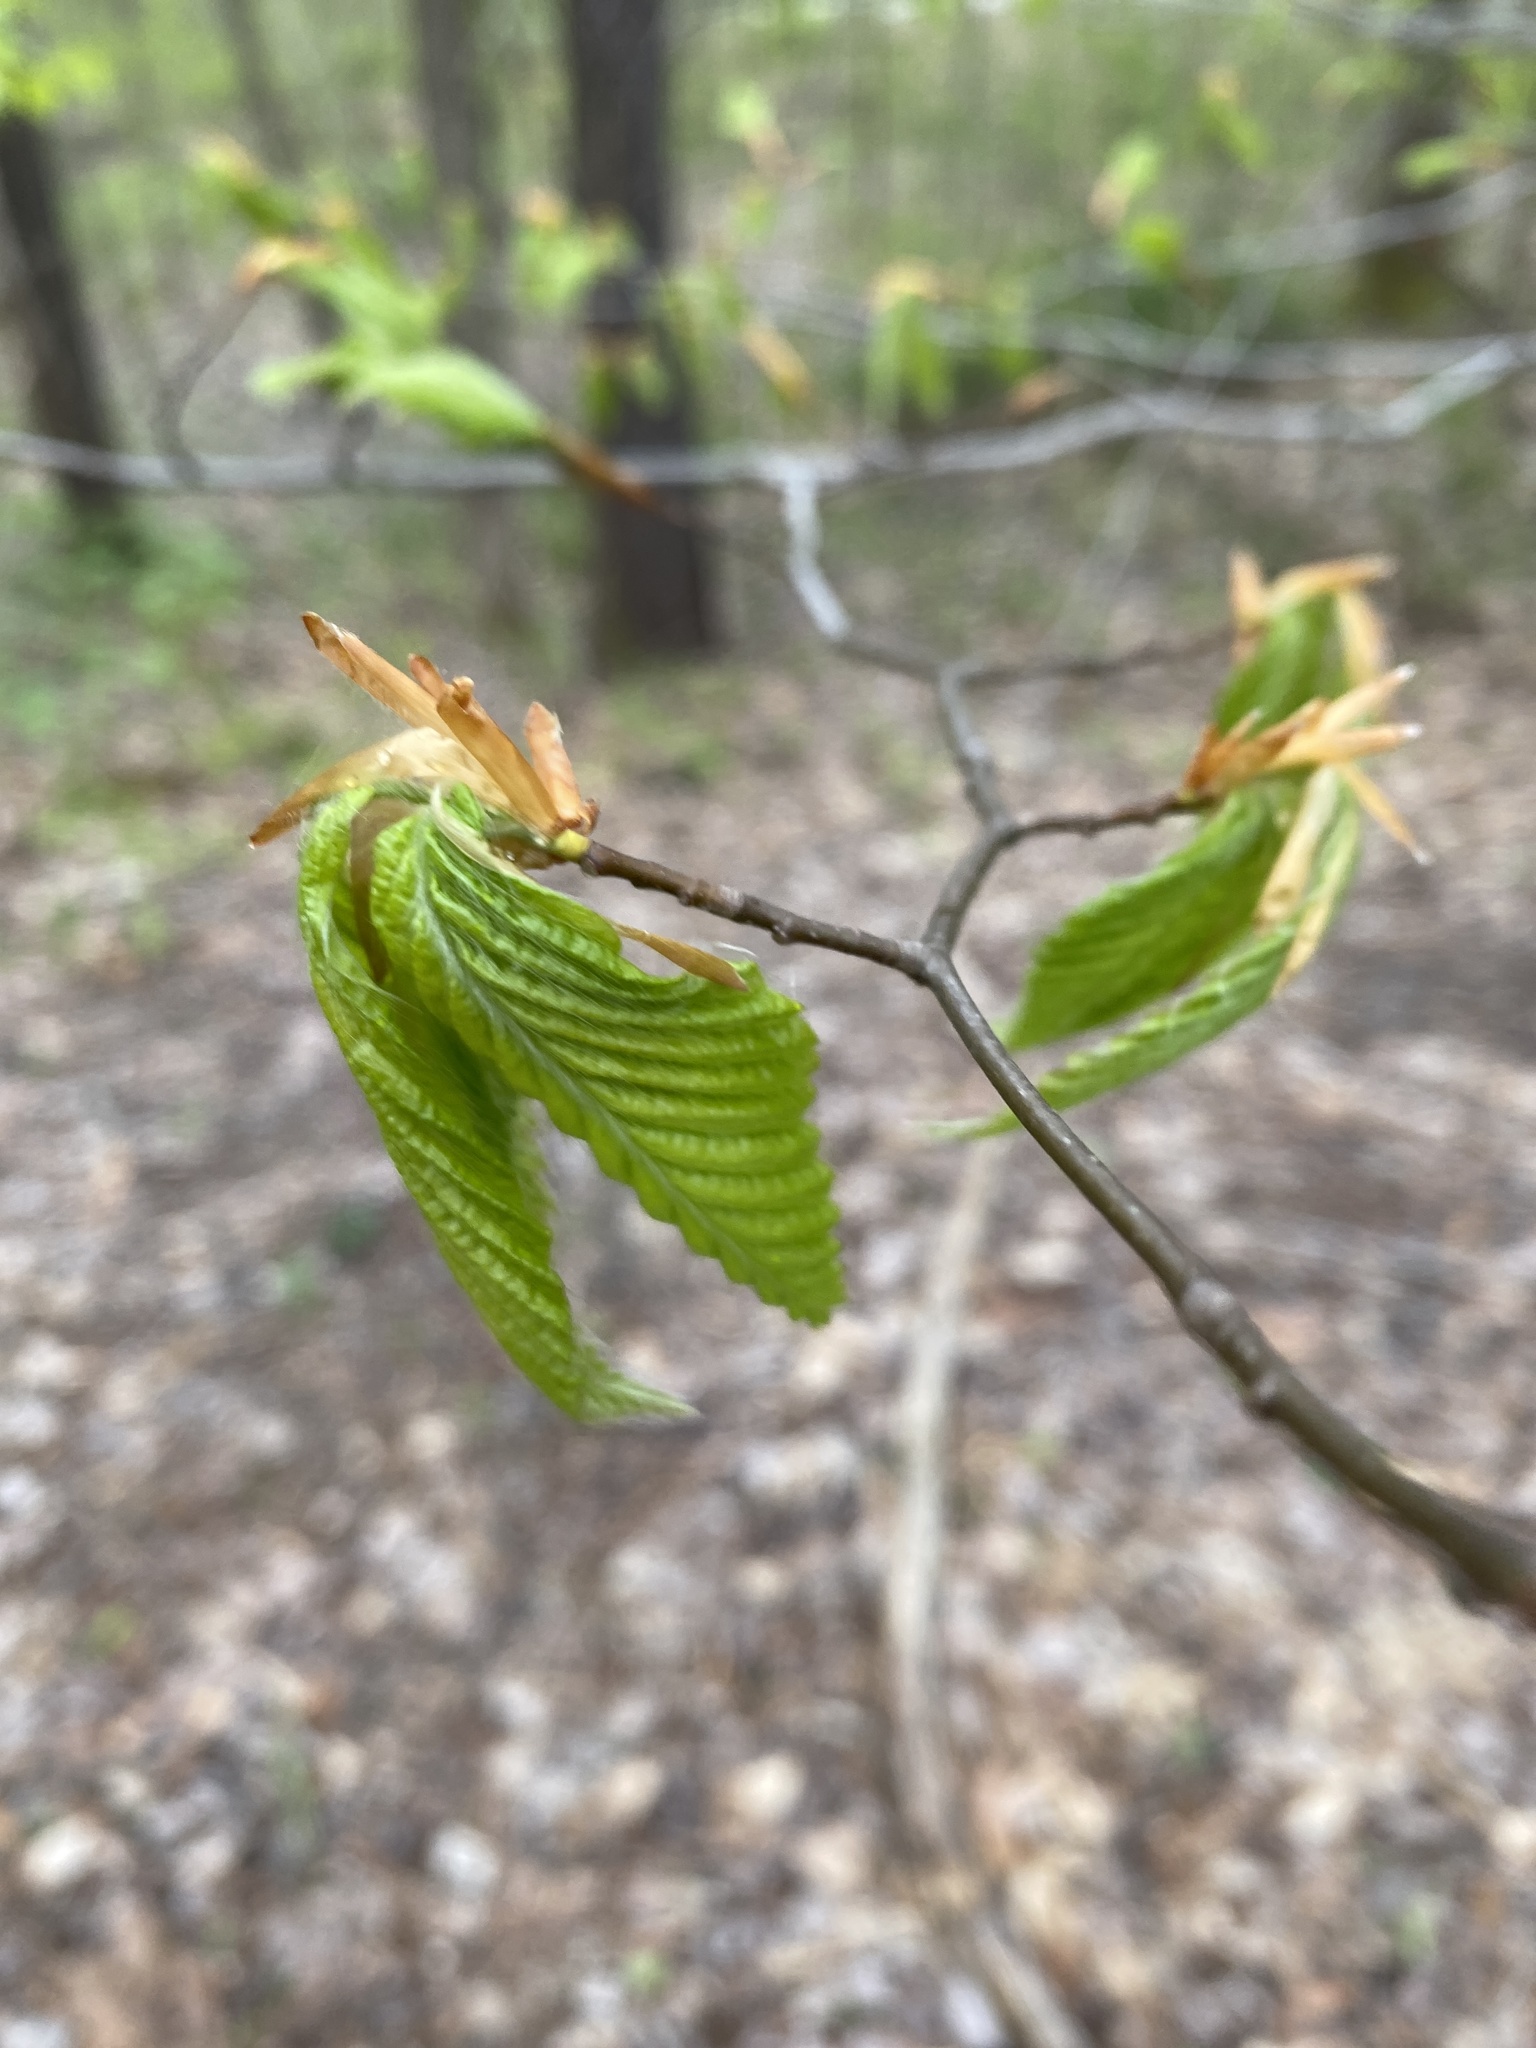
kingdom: Plantae
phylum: Tracheophyta
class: Magnoliopsida
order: Fagales
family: Fagaceae
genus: Fagus
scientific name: Fagus grandifolia
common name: American beech
